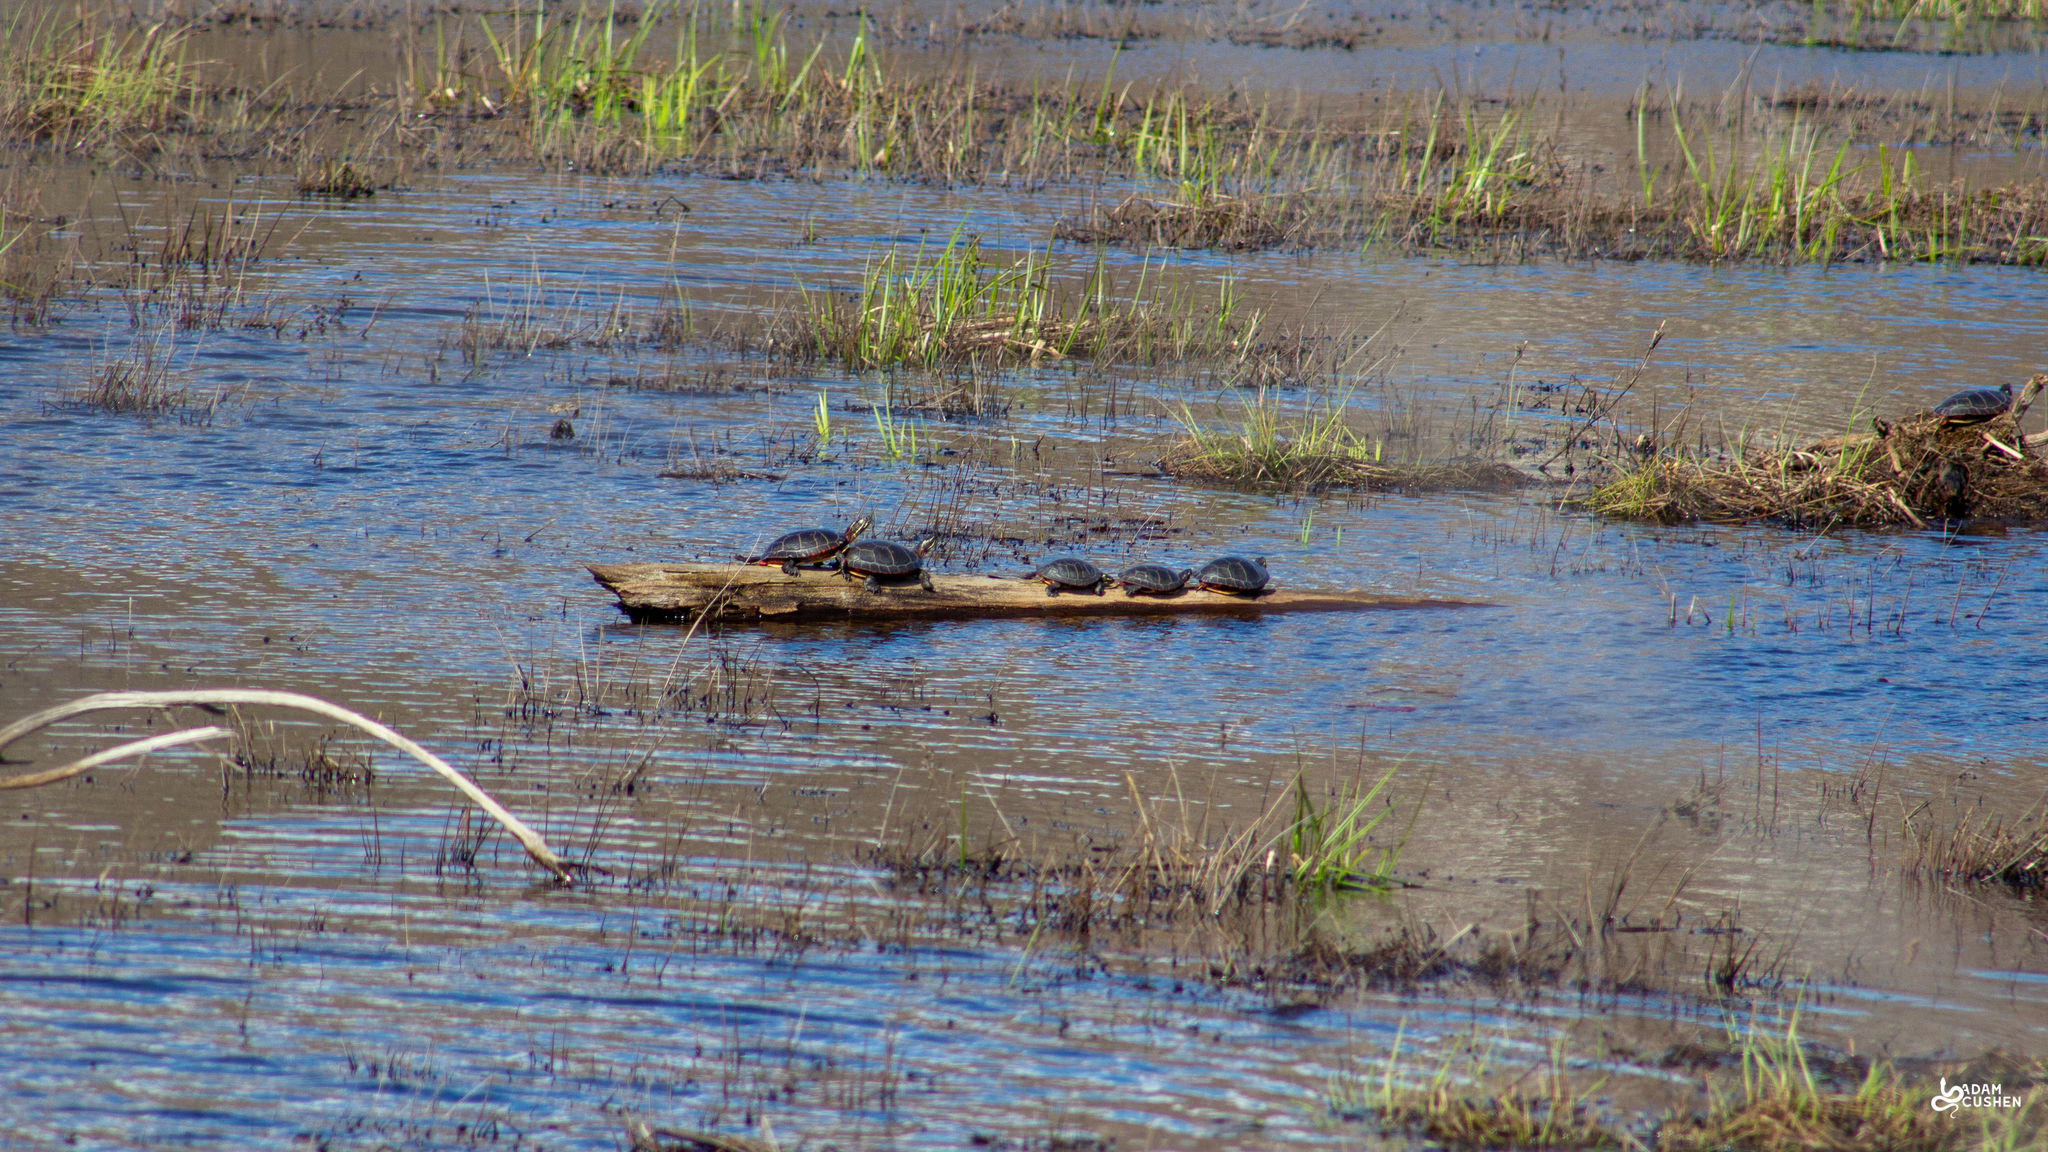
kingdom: Animalia
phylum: Chordata
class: Testudines
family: Emydidae
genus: Chrysemys
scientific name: Chrysemys picta
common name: Painted turtle
